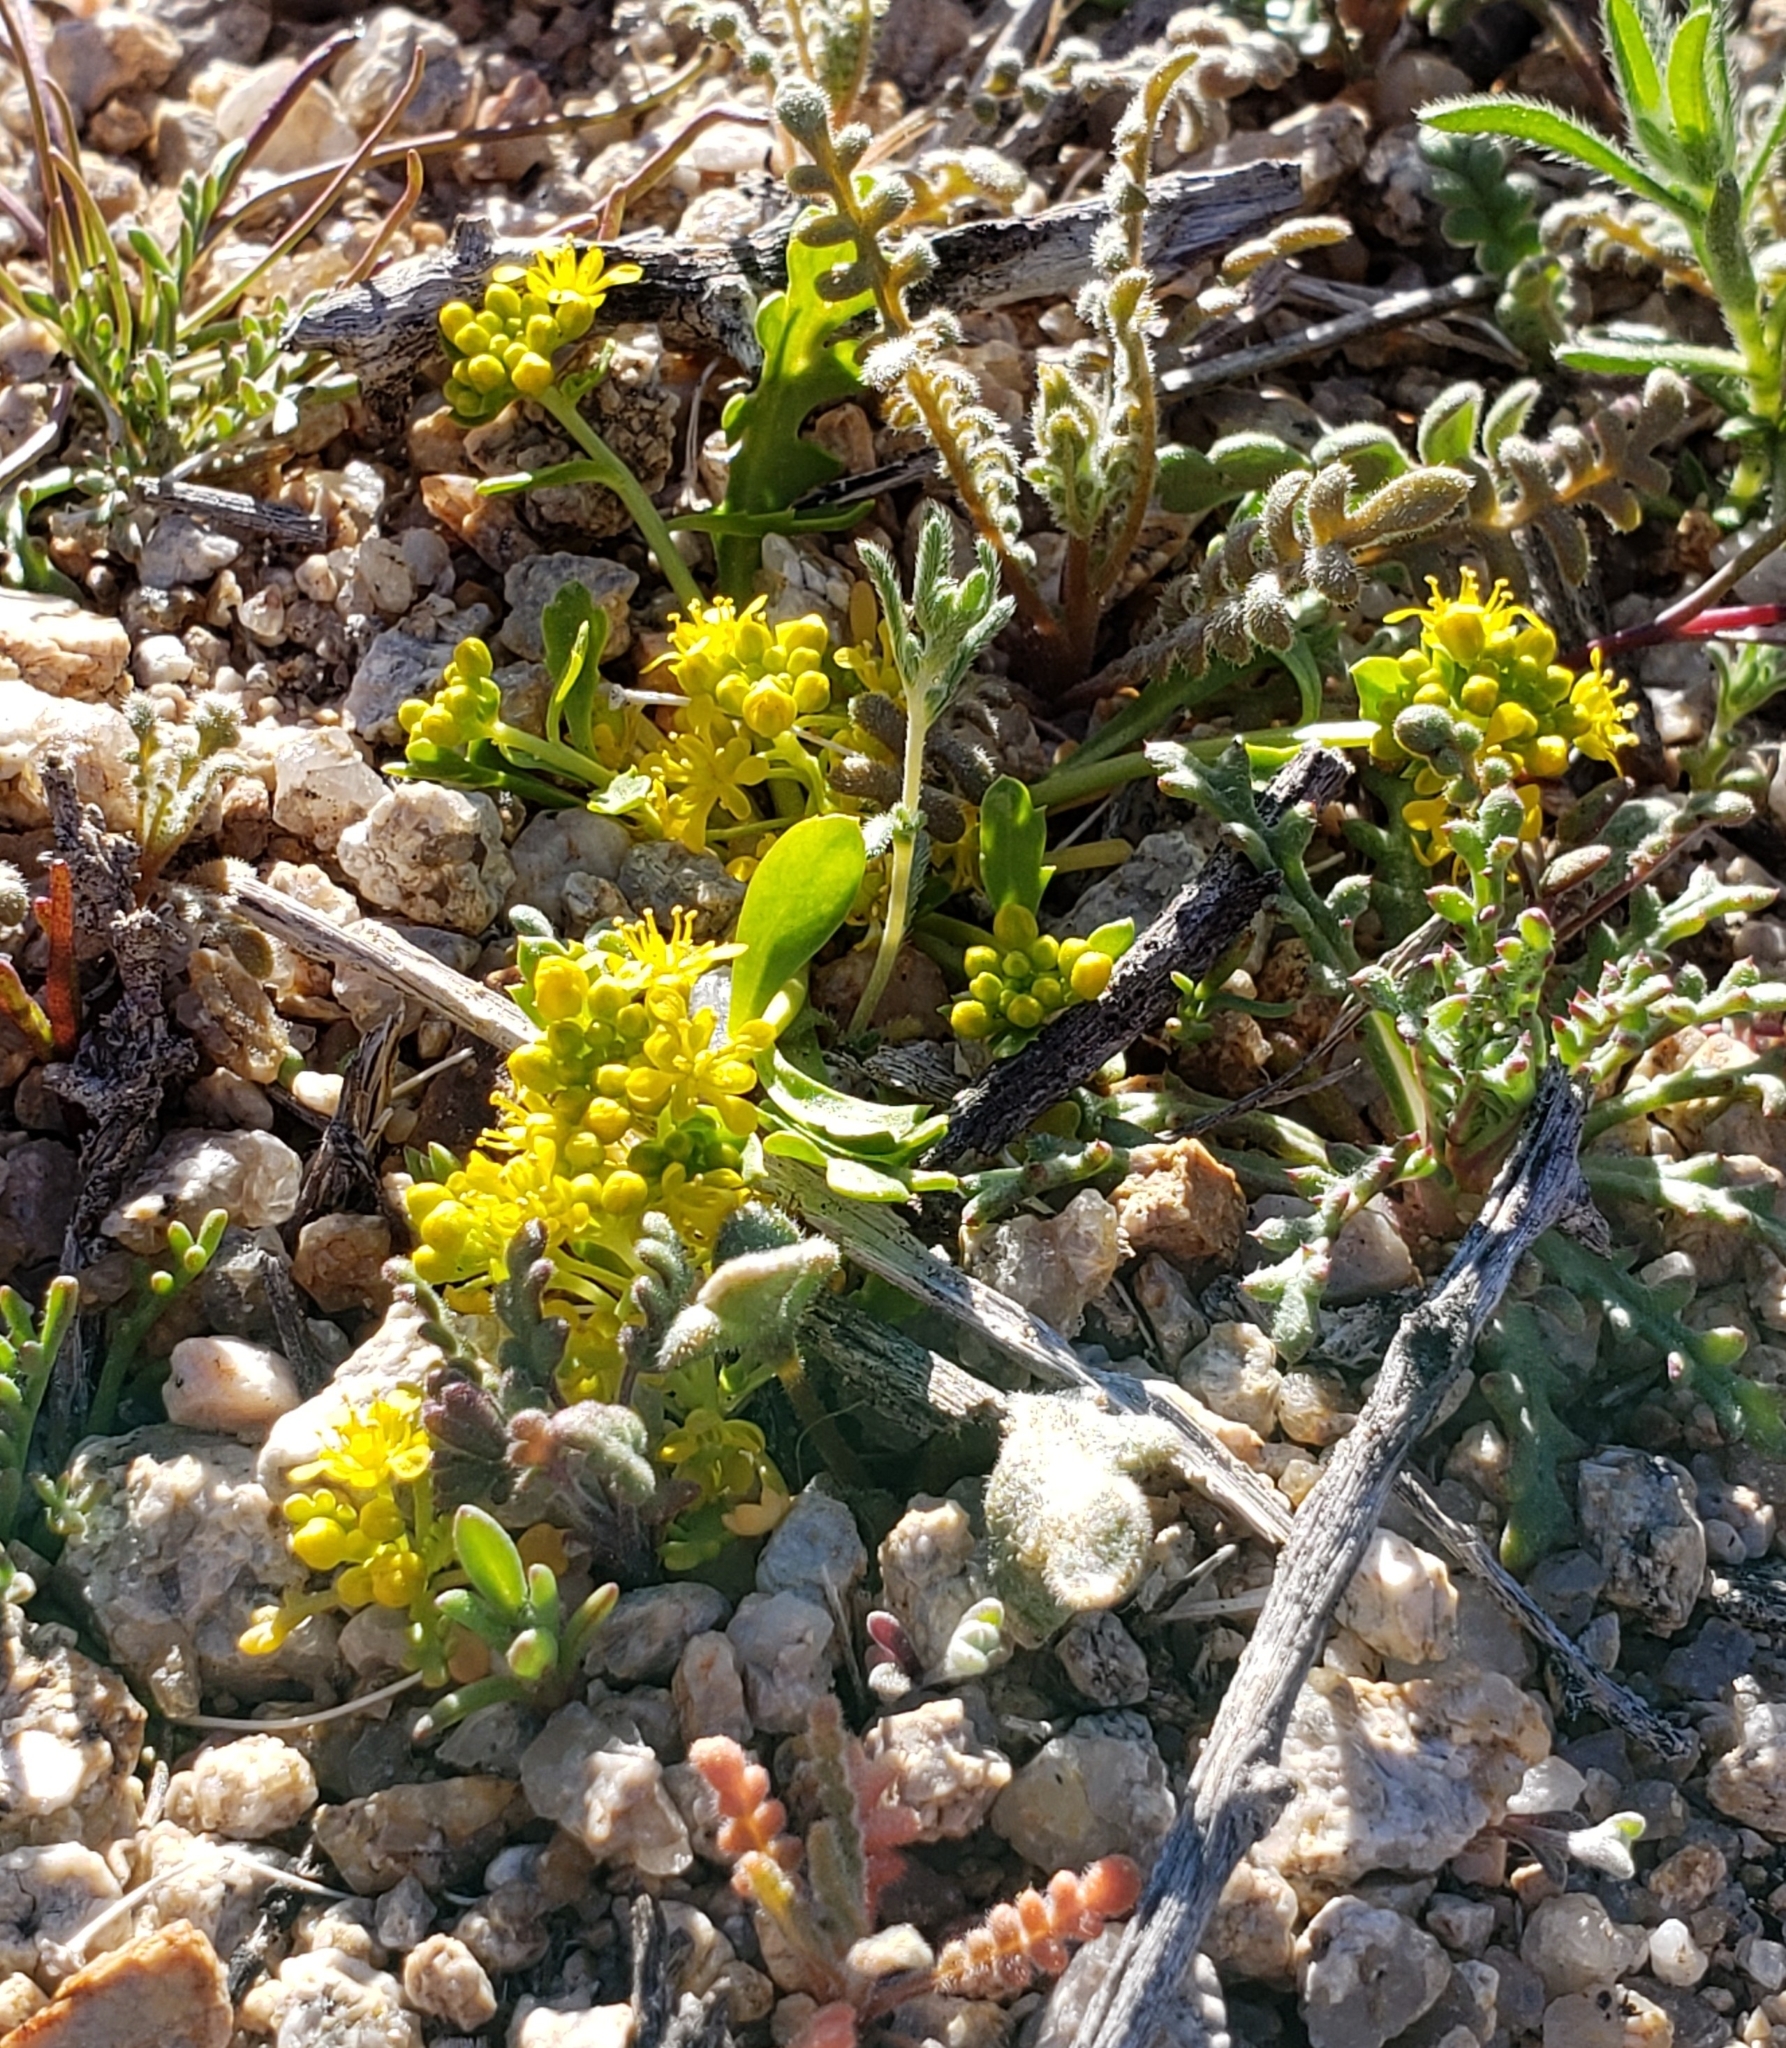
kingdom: Plantae
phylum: Tracheophyta
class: Magnoliopsida
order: Brassicales
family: Brassicaceae
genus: Lepidium
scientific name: Lepidium flavum
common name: Yellow pepperwort
